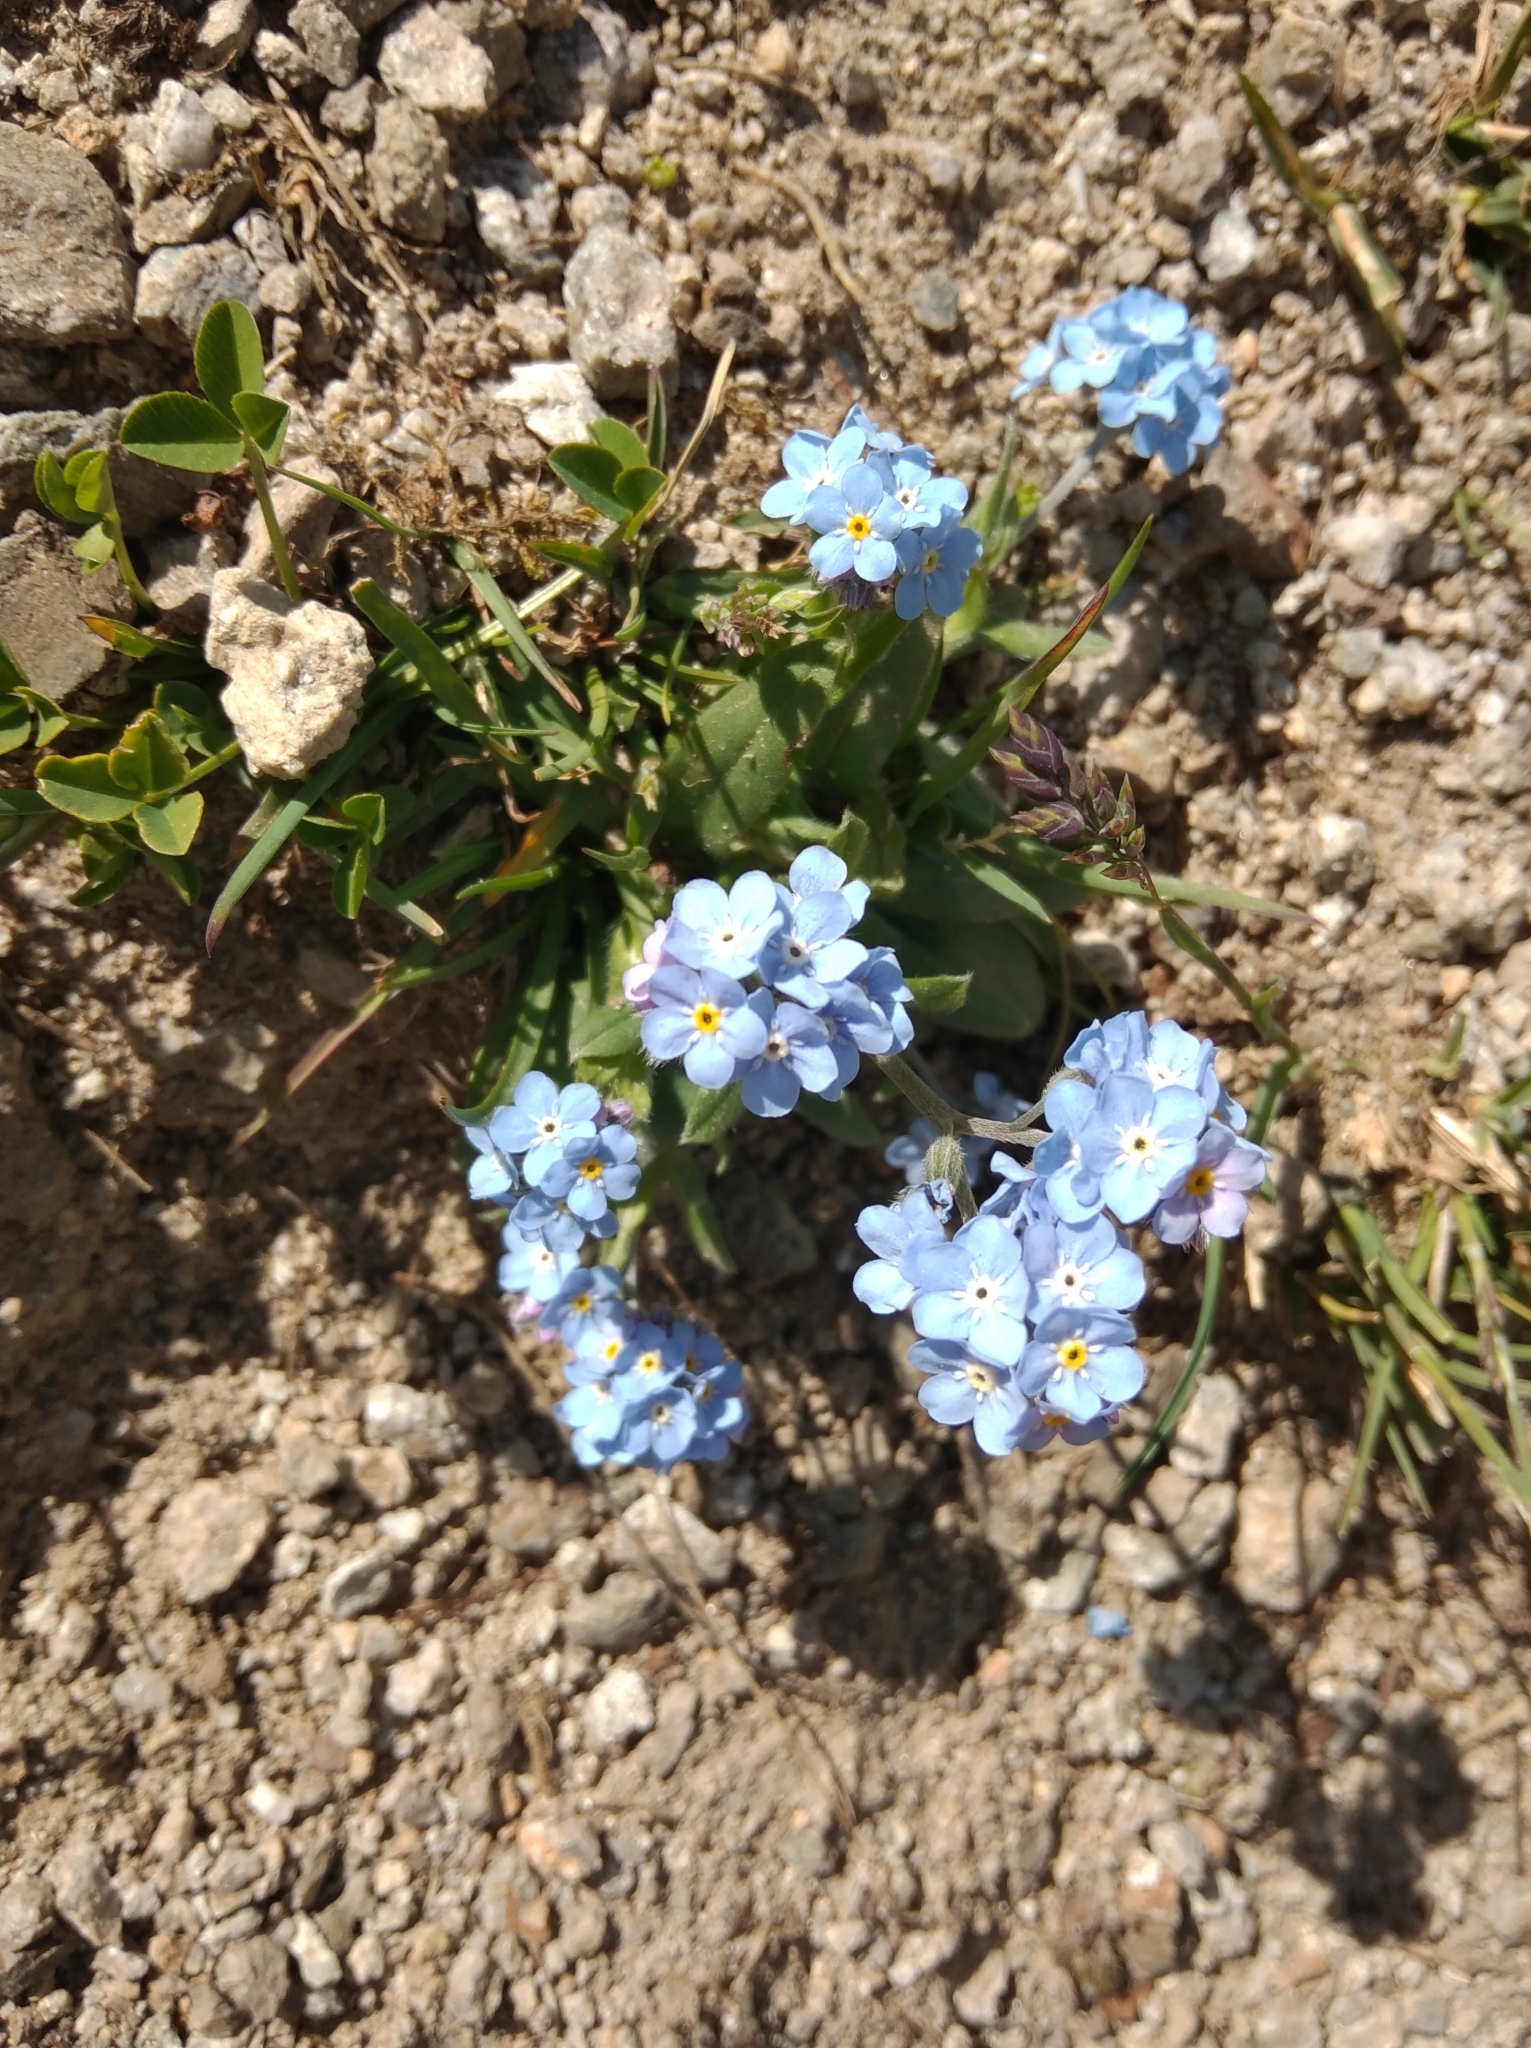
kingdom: Plantae
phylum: Tracheophyta
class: Magnoliopsida
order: Boraginales
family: Boraginaceae
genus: Myosotis
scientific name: Myosotis alpestris
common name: Alpine forget-me-not
